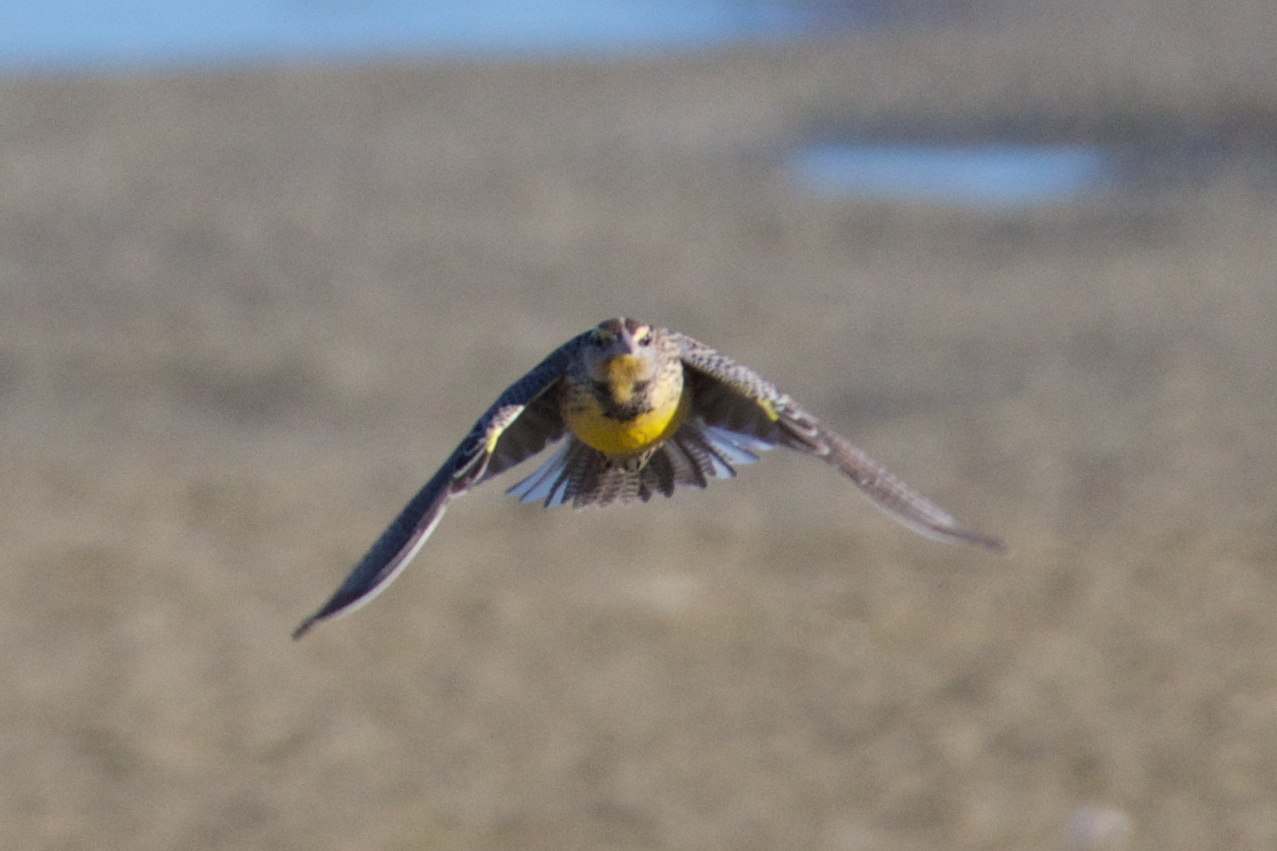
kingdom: Animalia
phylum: Chordata
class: Aves
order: Passeriformes
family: Icteridae
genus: Sturnella
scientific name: Sturnella neglecta
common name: Western meadowlark
